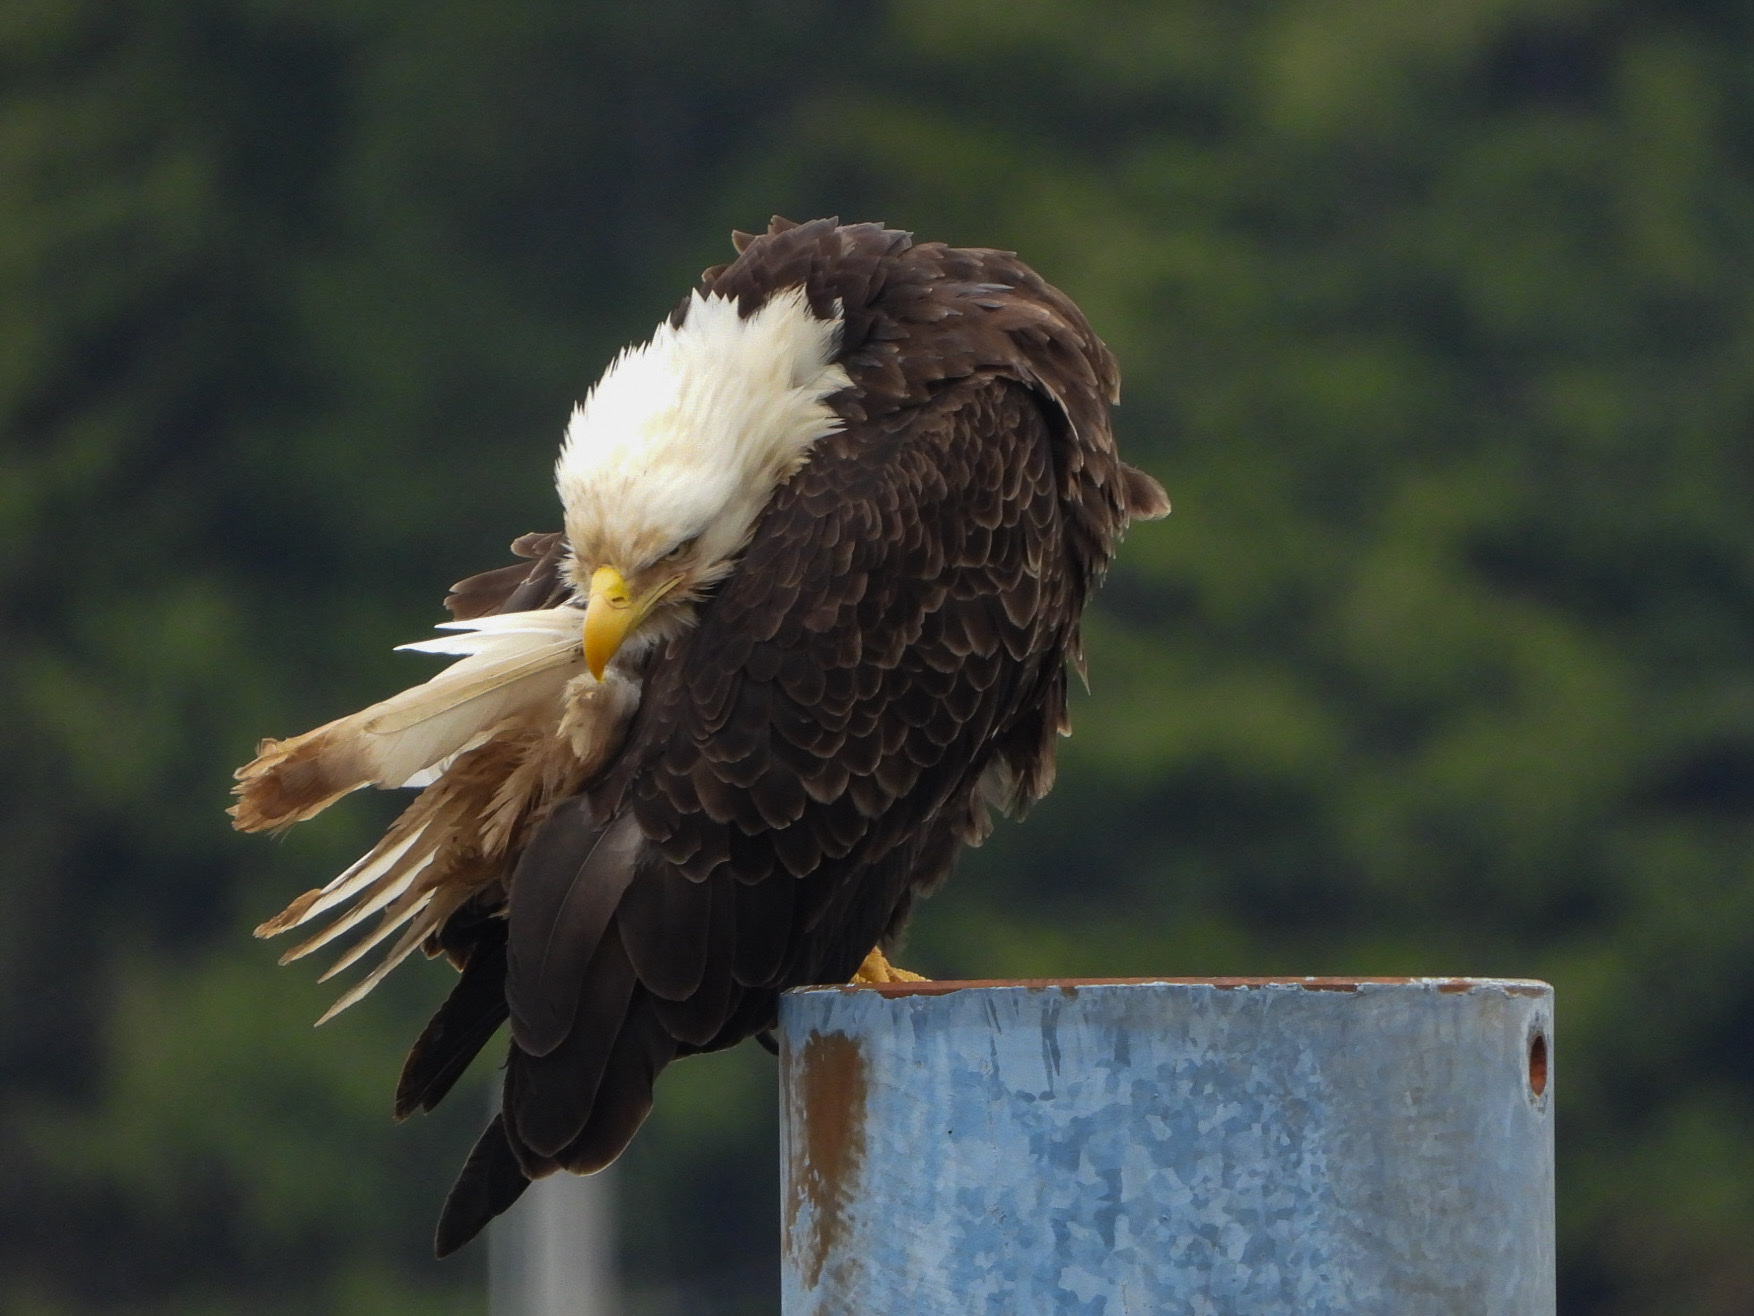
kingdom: Animalia
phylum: Chordata
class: Aves
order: Accipitriformes
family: Accipitridae
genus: Haliaeetus
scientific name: Haliaeetus leucocephalus
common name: Bald eagle
